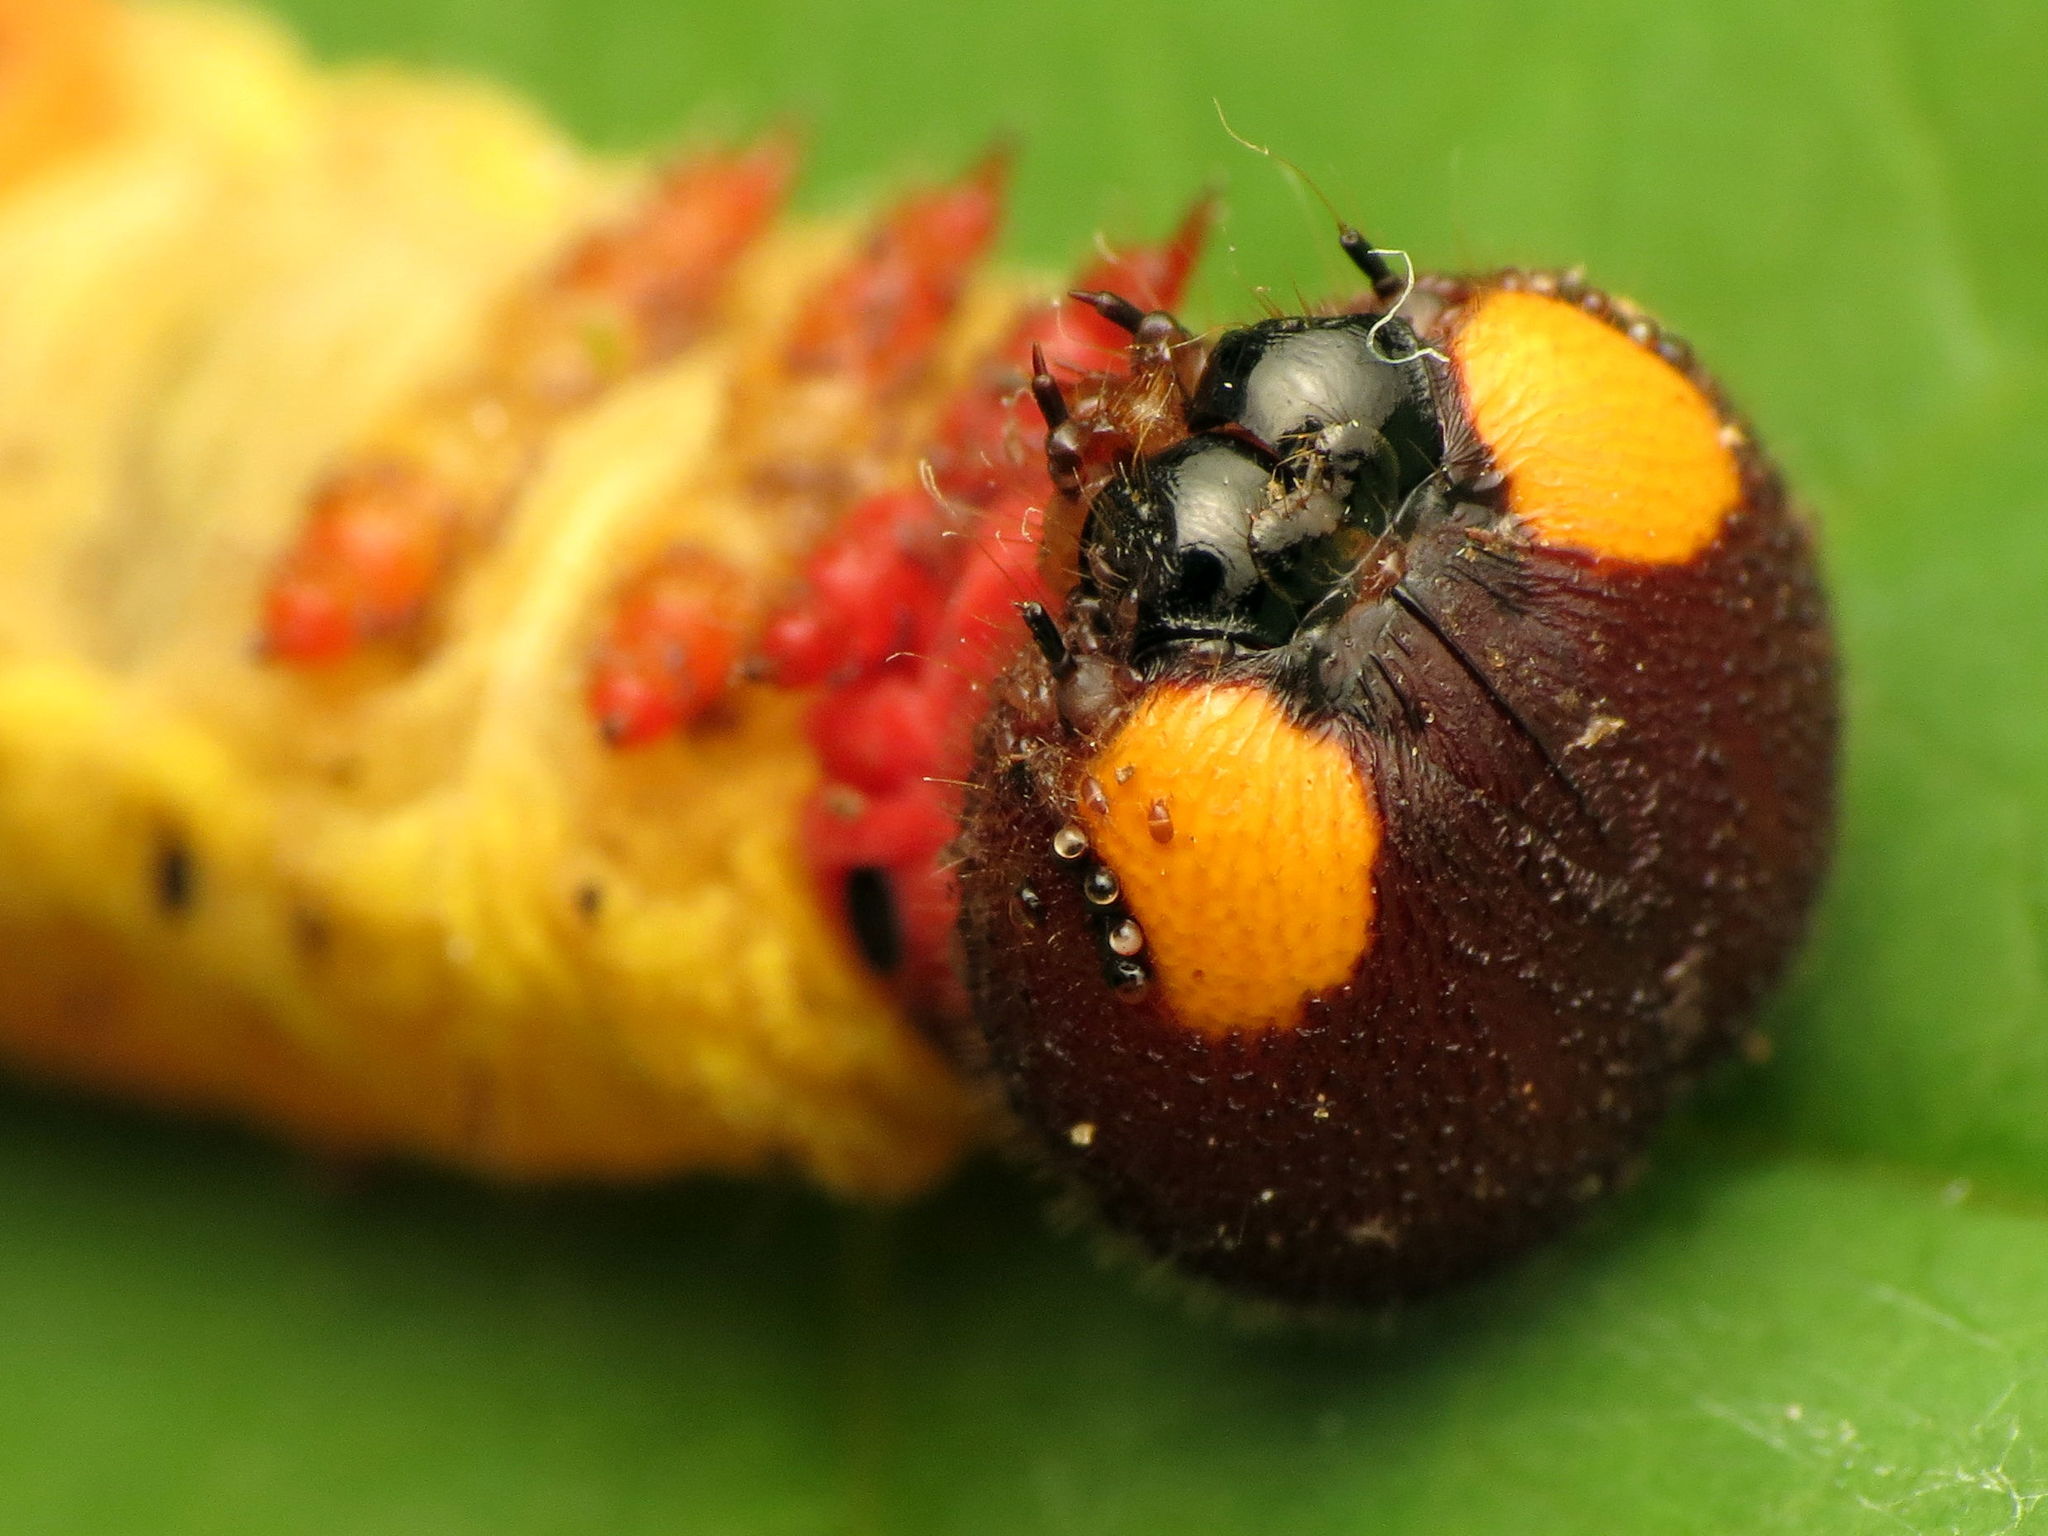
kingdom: Animalia
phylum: Arthropoda
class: Insecta
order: Lepidoptera
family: Hesperiidae
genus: Epargyreus
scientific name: Epargyreus clarus
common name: Silver-spotted skipper
